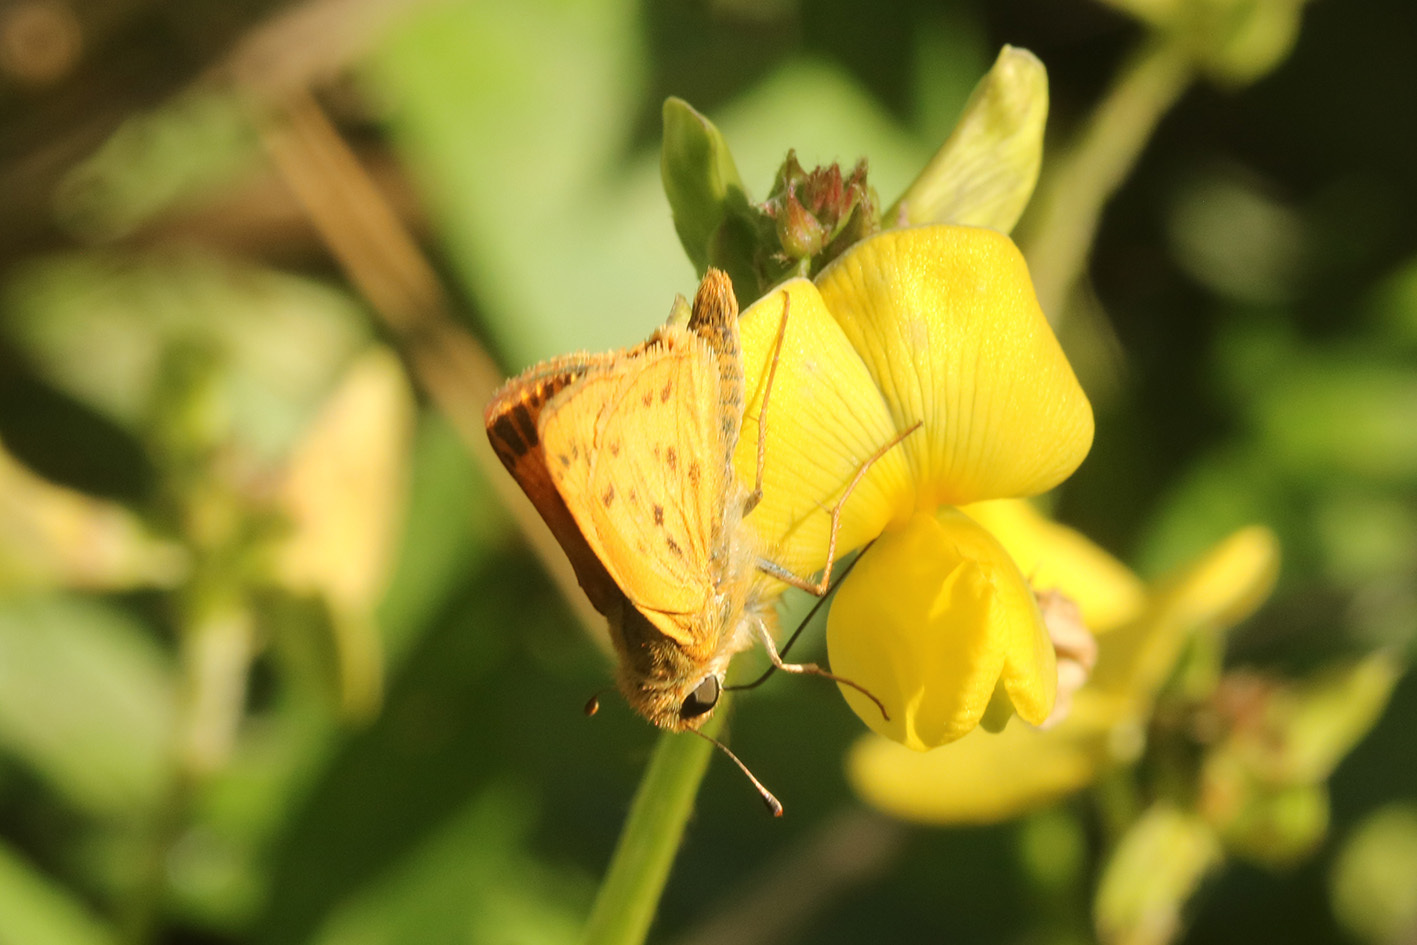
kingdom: Animalia
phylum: Arthropoda
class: Insecta
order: Lepidoptera
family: Hesperiidae
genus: Hylephila
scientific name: Hylephila phyleus
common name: Fiery skipper
